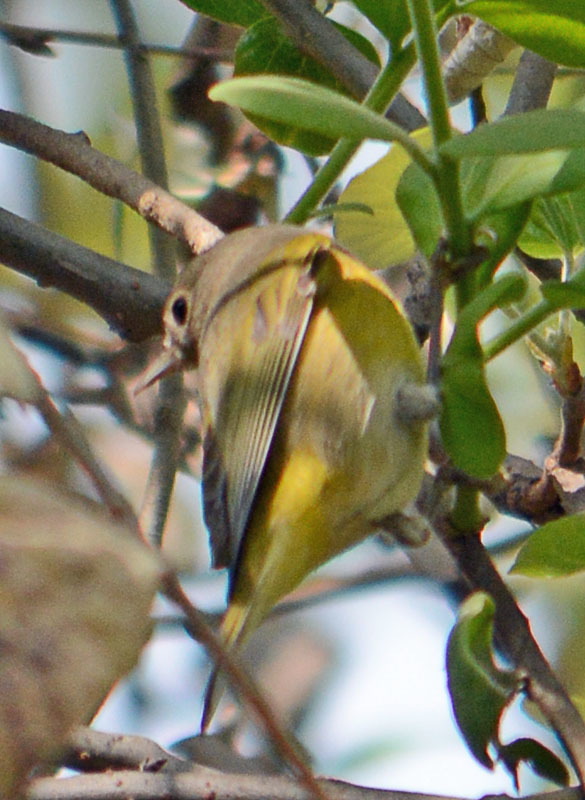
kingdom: Animalia
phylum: Chordata
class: Aves
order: Passeriformes
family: Parulidae
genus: Leiothlypis
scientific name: Leiothlypis ruficapilla
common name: Nashville warbler
